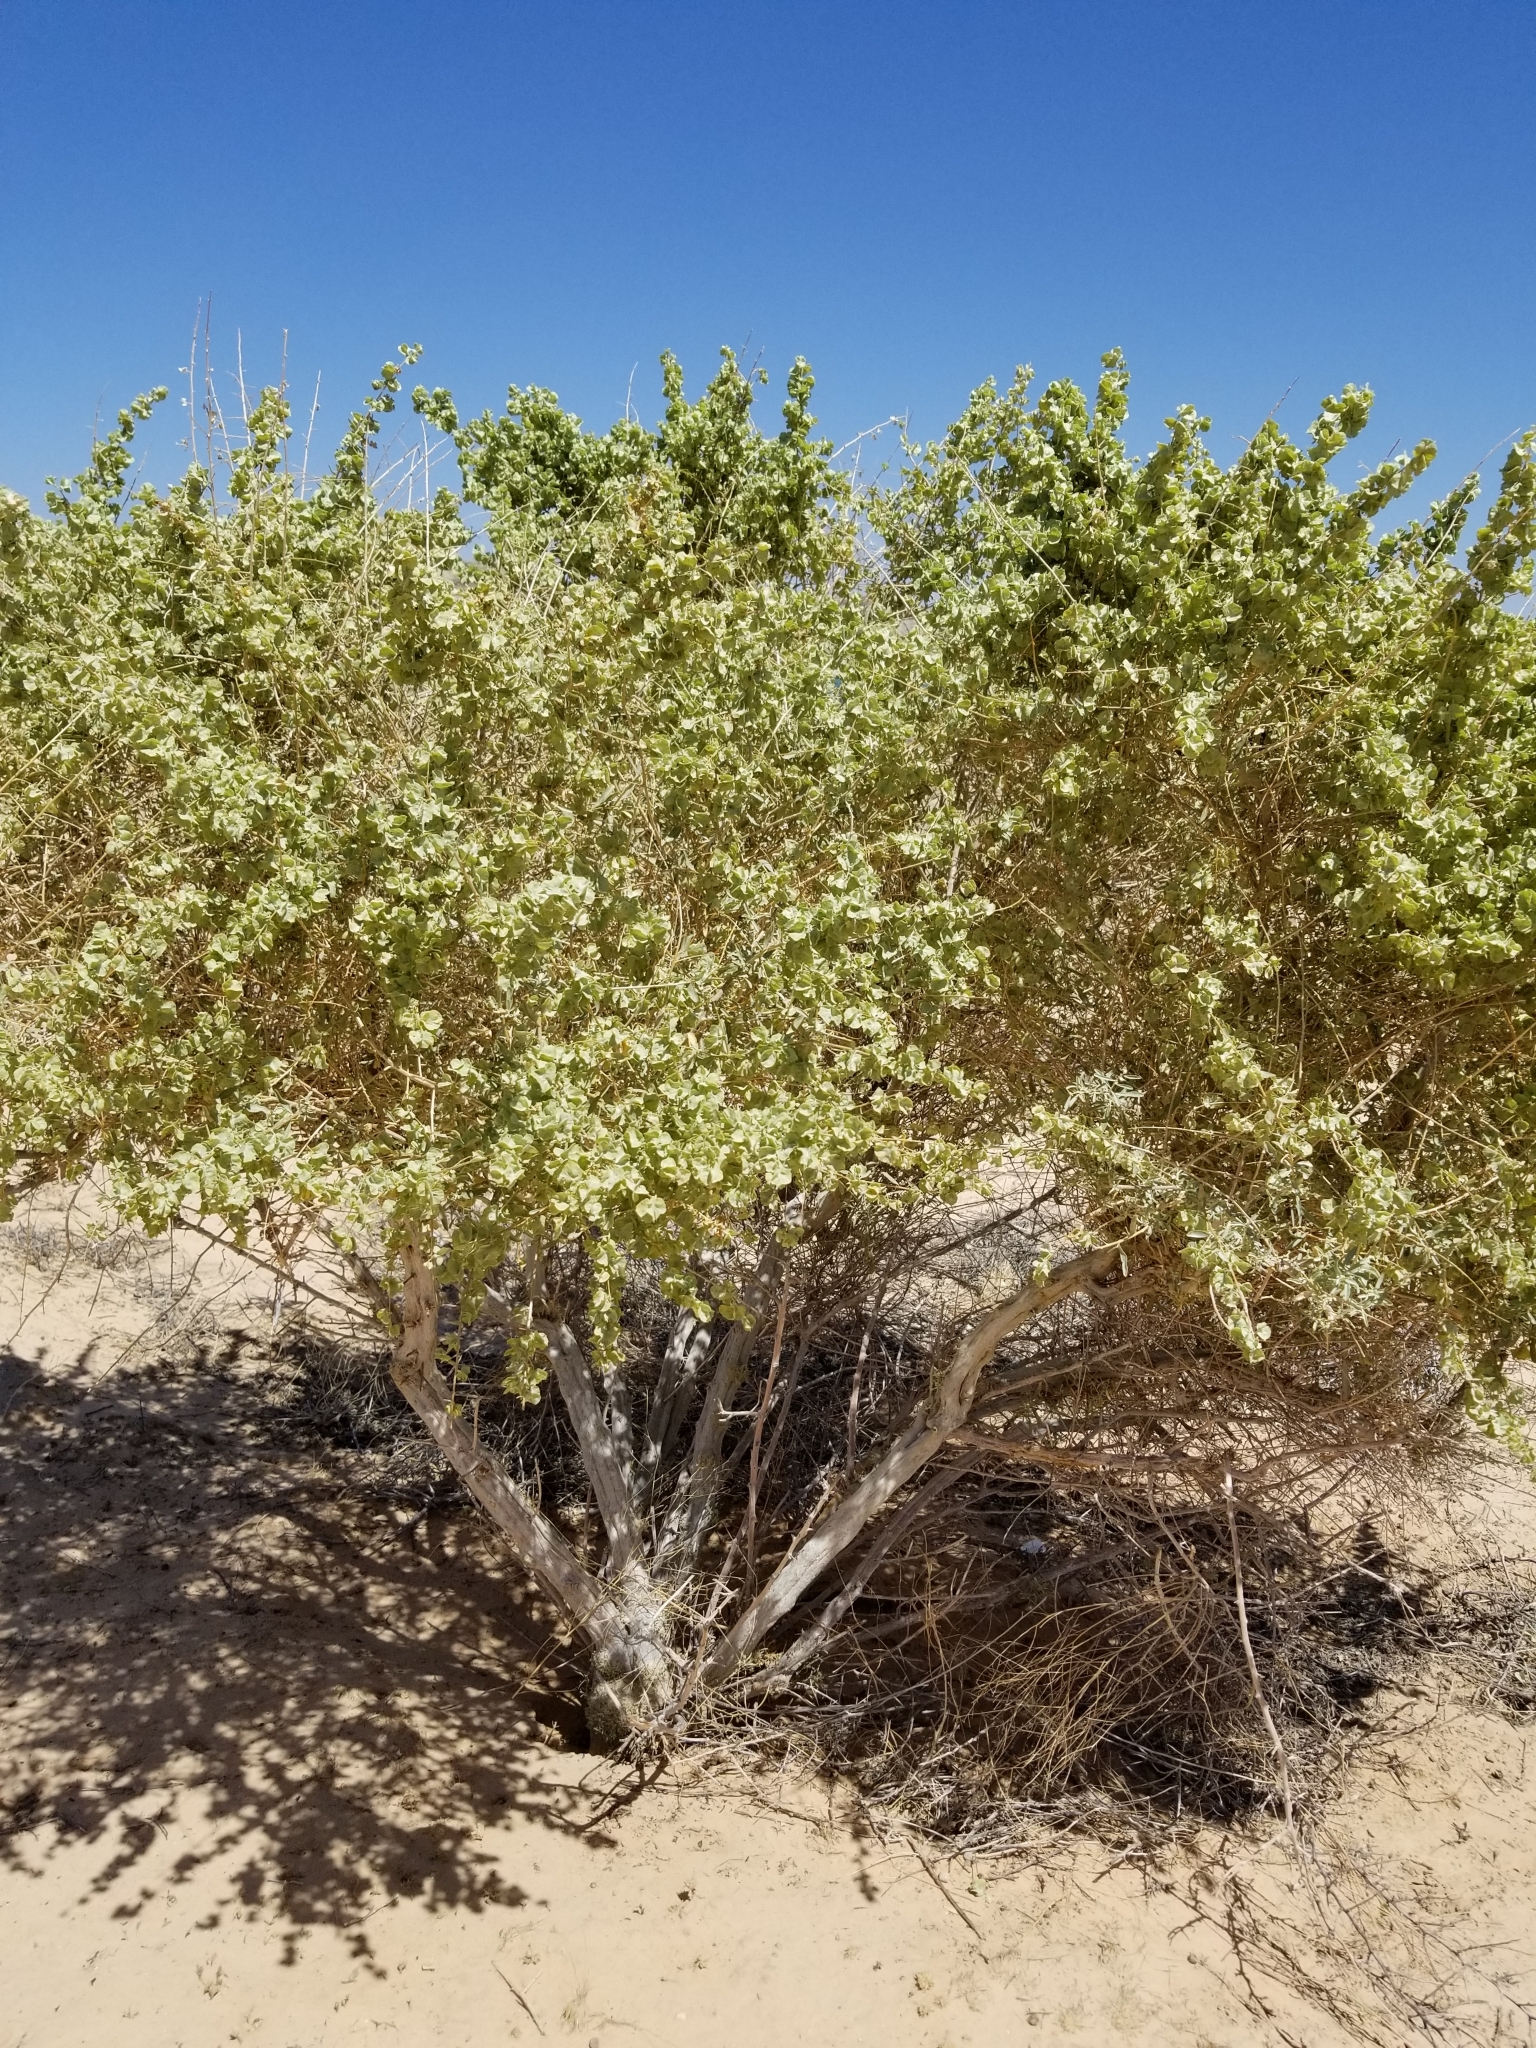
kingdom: Plantae
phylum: Tracheophyta
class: Magnoliopsida
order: Caryophyllales
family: Amaranthaceae
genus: Atriplex
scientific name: Atriplex canescens
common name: Four-wing saltbush
